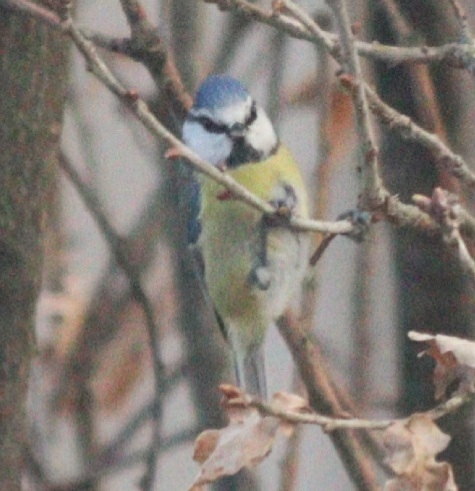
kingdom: Animalia
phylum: Chordata
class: Aves
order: Passeriformes
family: Paridae
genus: Cyanistes
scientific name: Cyanistes caeruleus
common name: Eurasian blue tit
